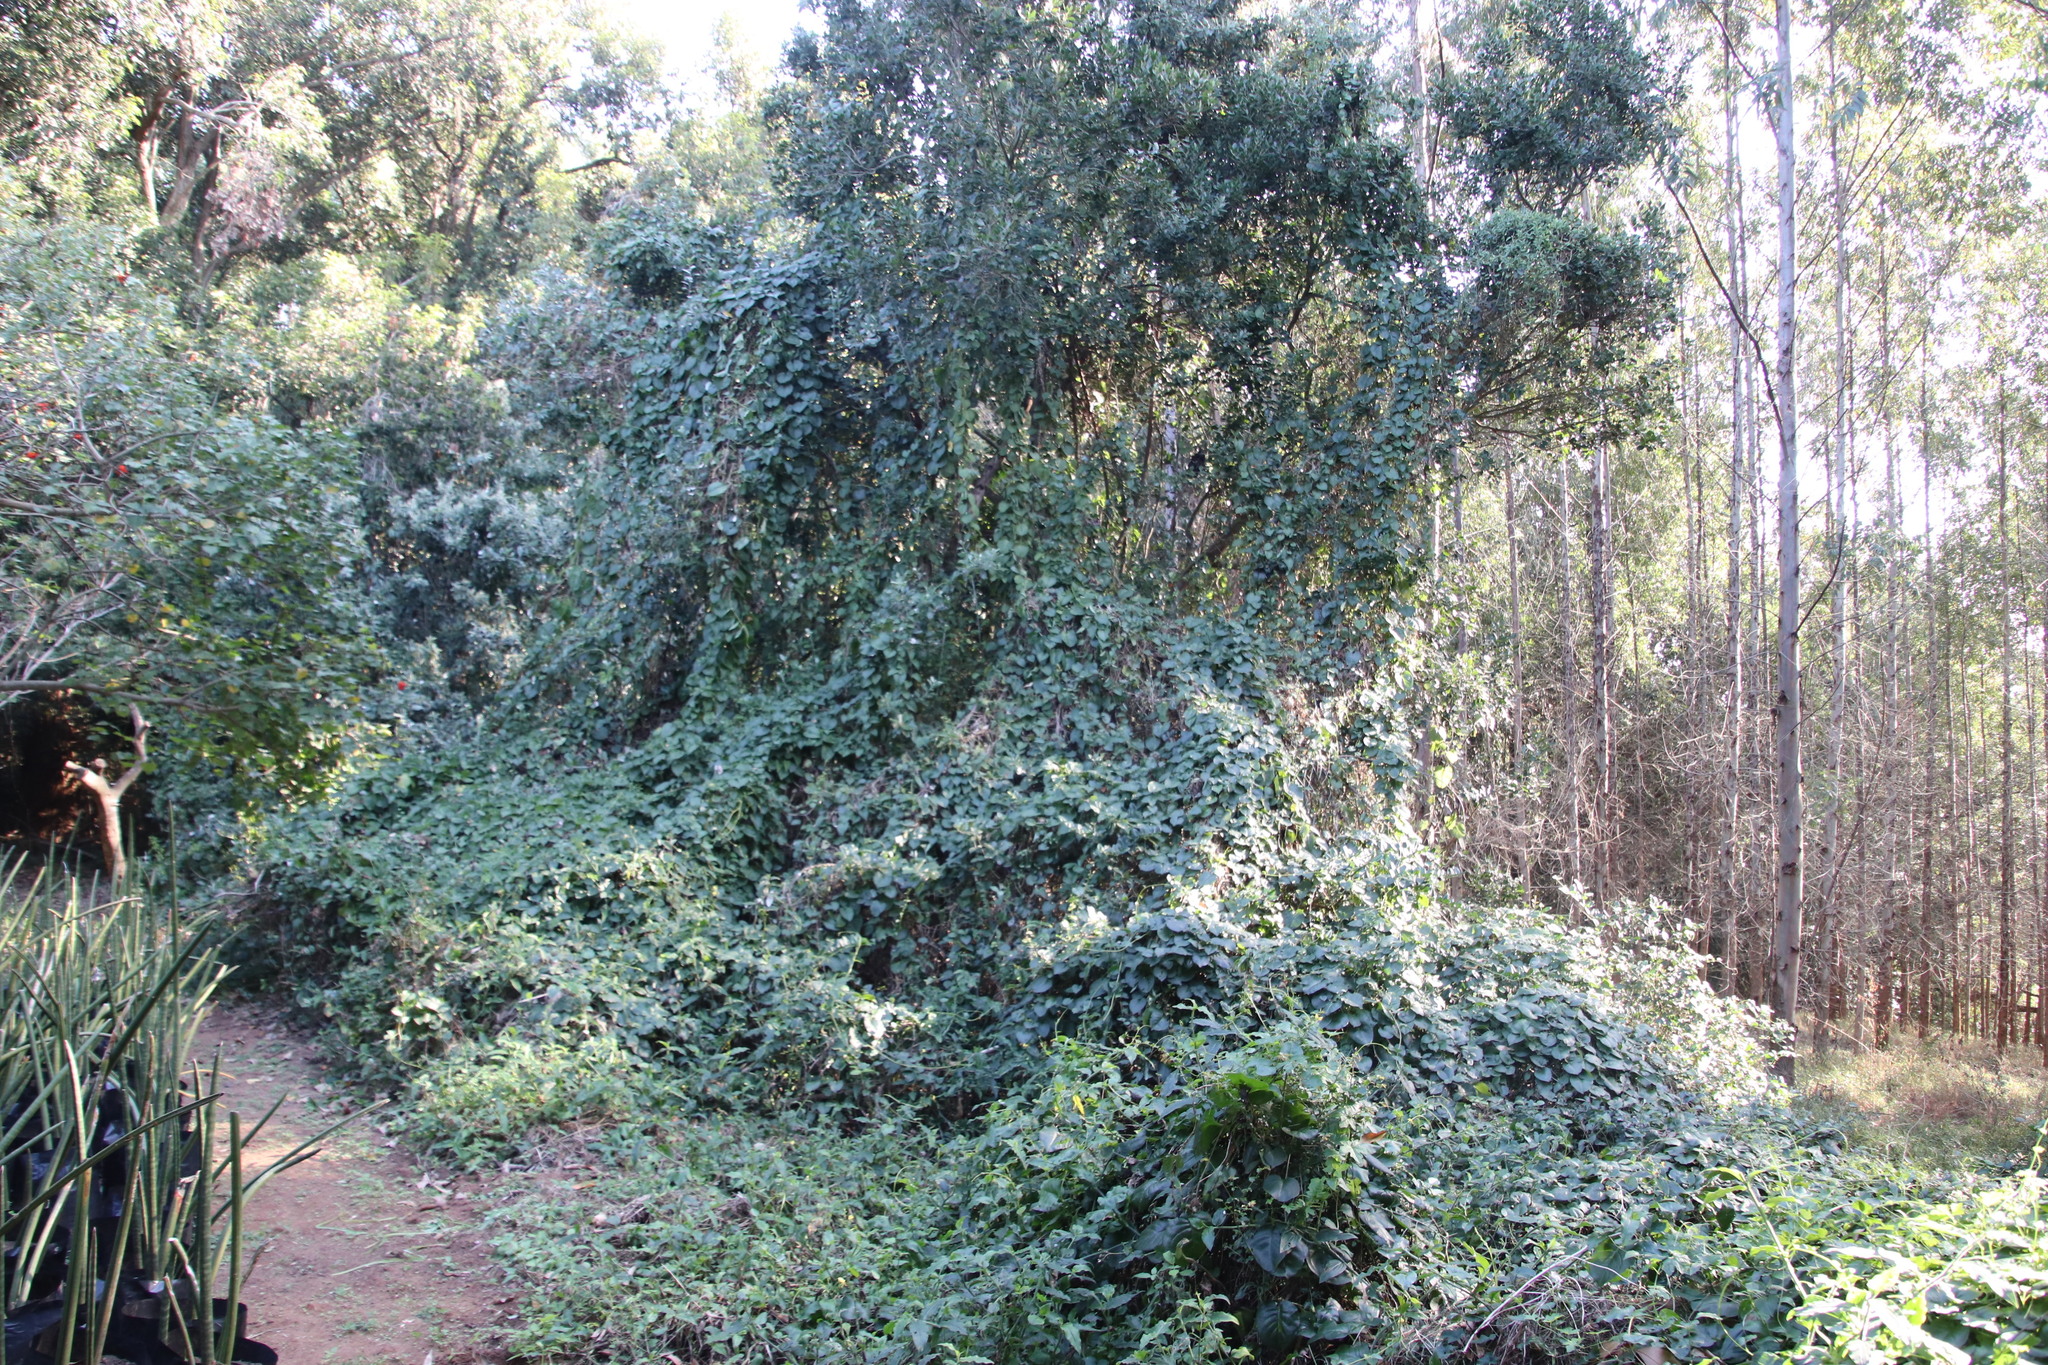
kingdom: Plantae
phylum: Tracheophyta
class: Magnoliopsida
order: Caryophyllales
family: Basellaceae
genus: Anredera
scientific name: Anredera cordifolia
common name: Heartleaf madeiravine
